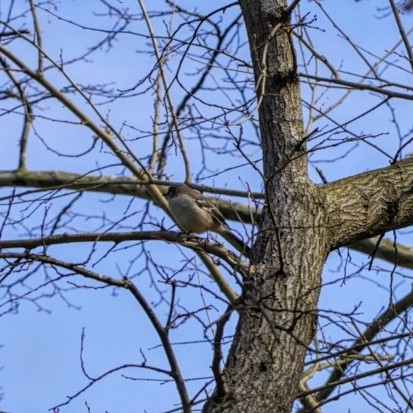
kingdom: Animalia
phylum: Chordata
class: Aves
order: Passeriformes
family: Mimidae
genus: Mimus
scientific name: Mimus polyglottos
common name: Northern mockingbird
